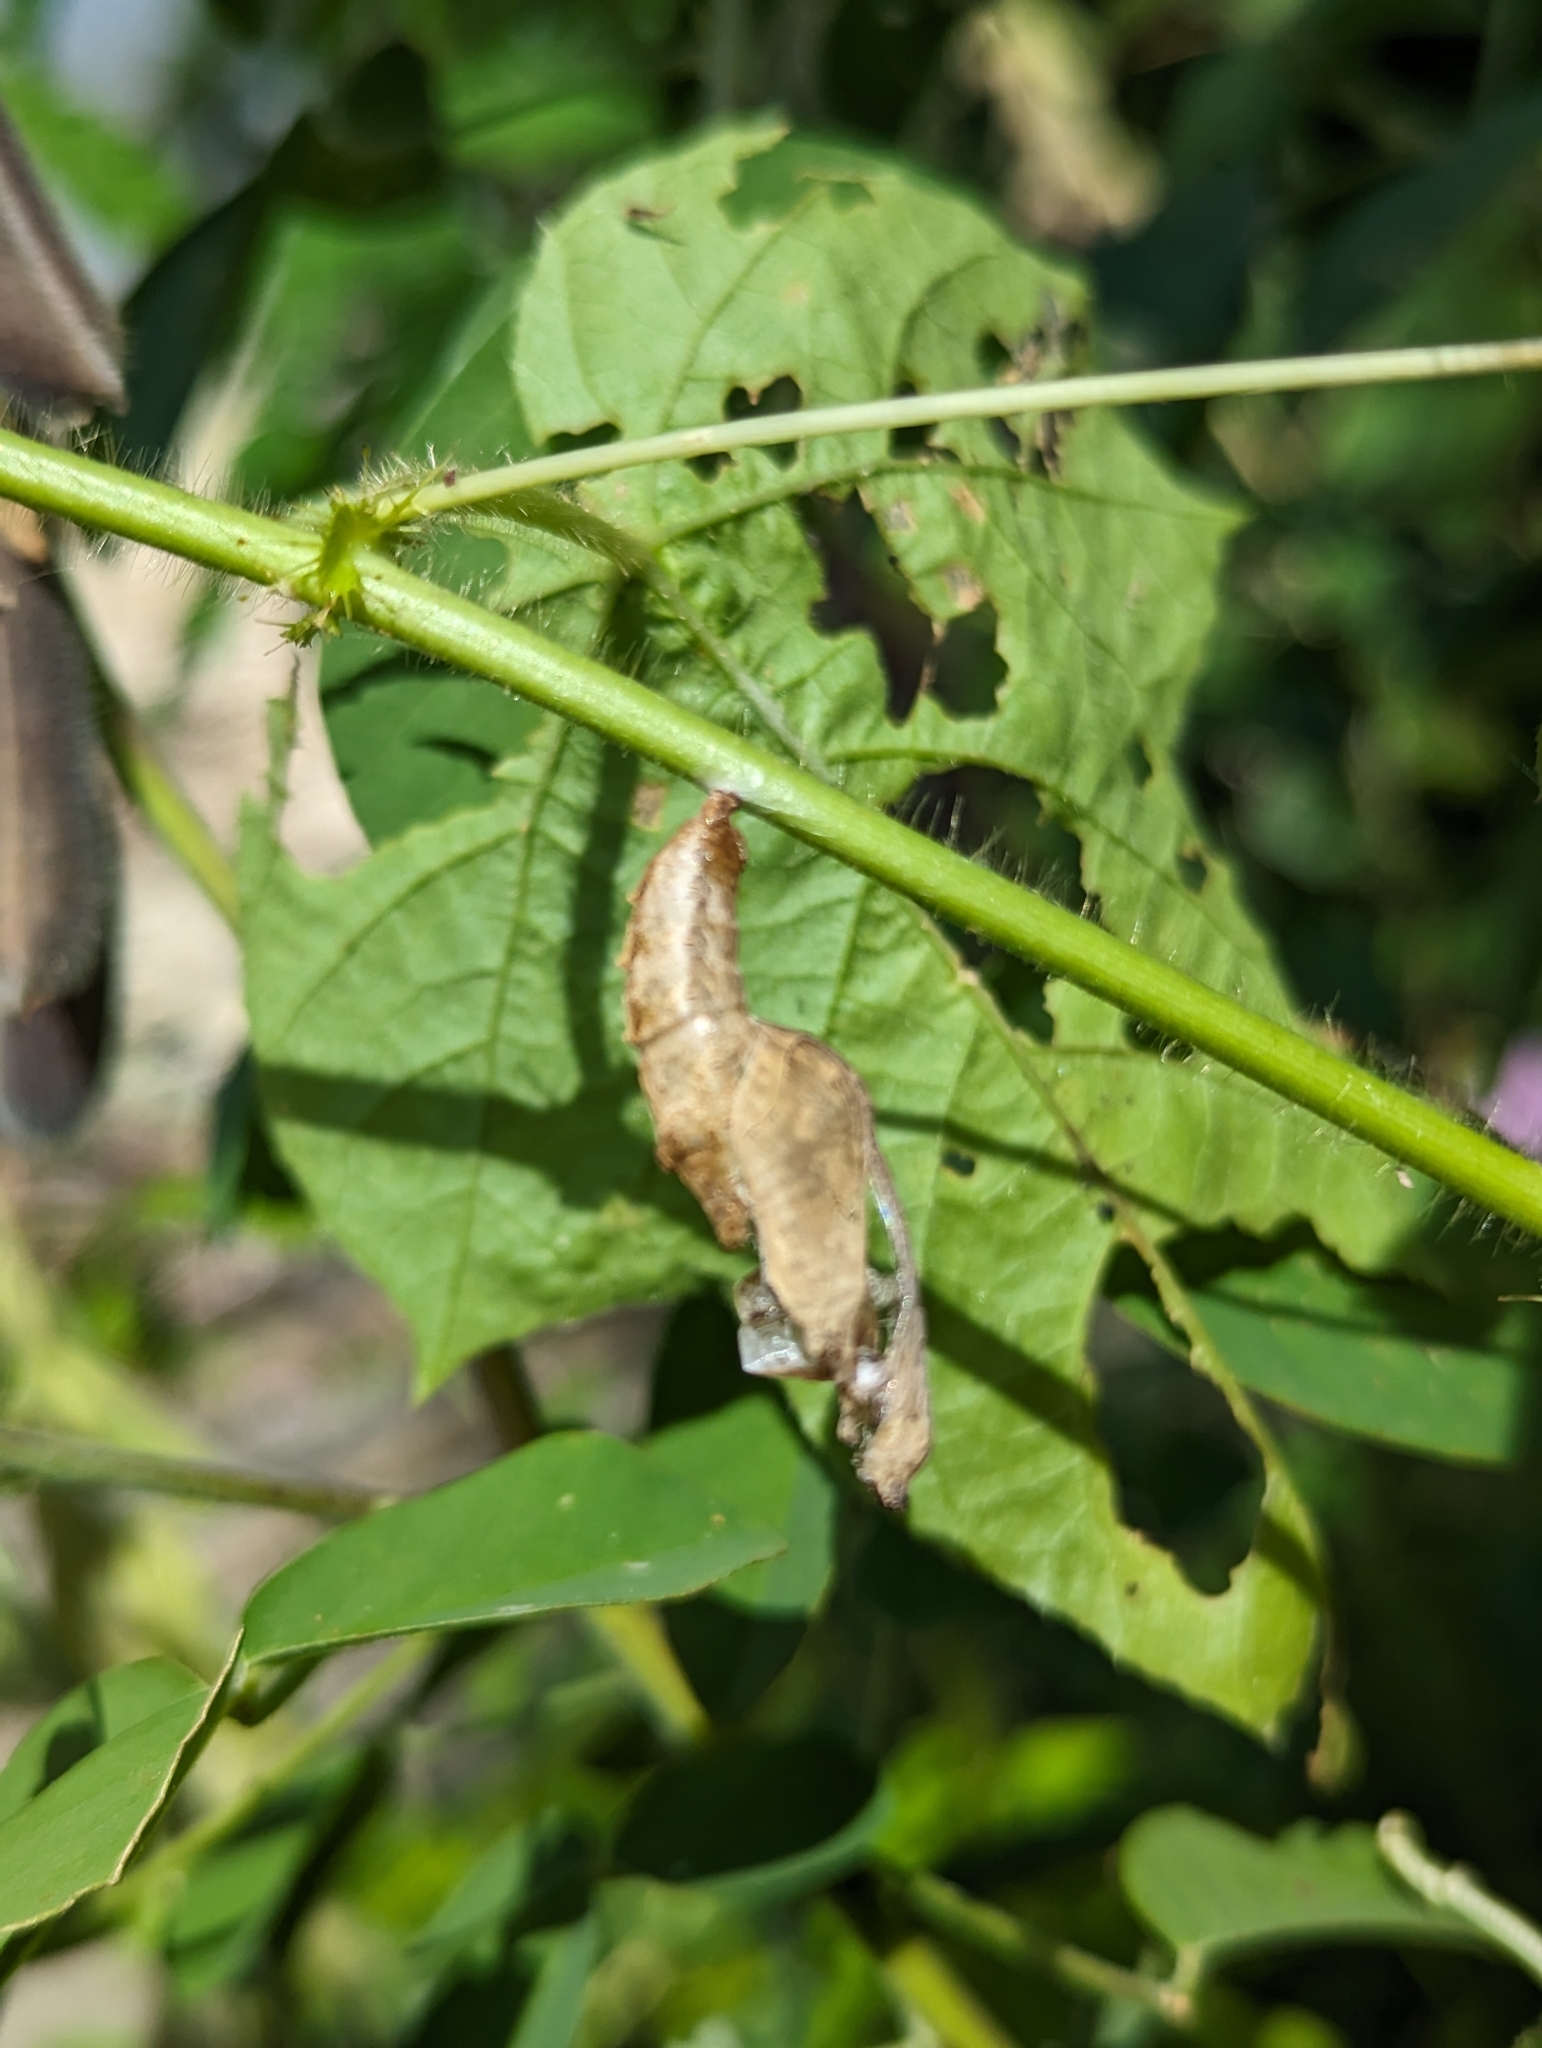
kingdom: Animalia
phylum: Arthropoda
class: Insecta
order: Lepidoptera
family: Nymphalidae
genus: Dione
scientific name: Dione vanillae
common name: Gulf fritillary
